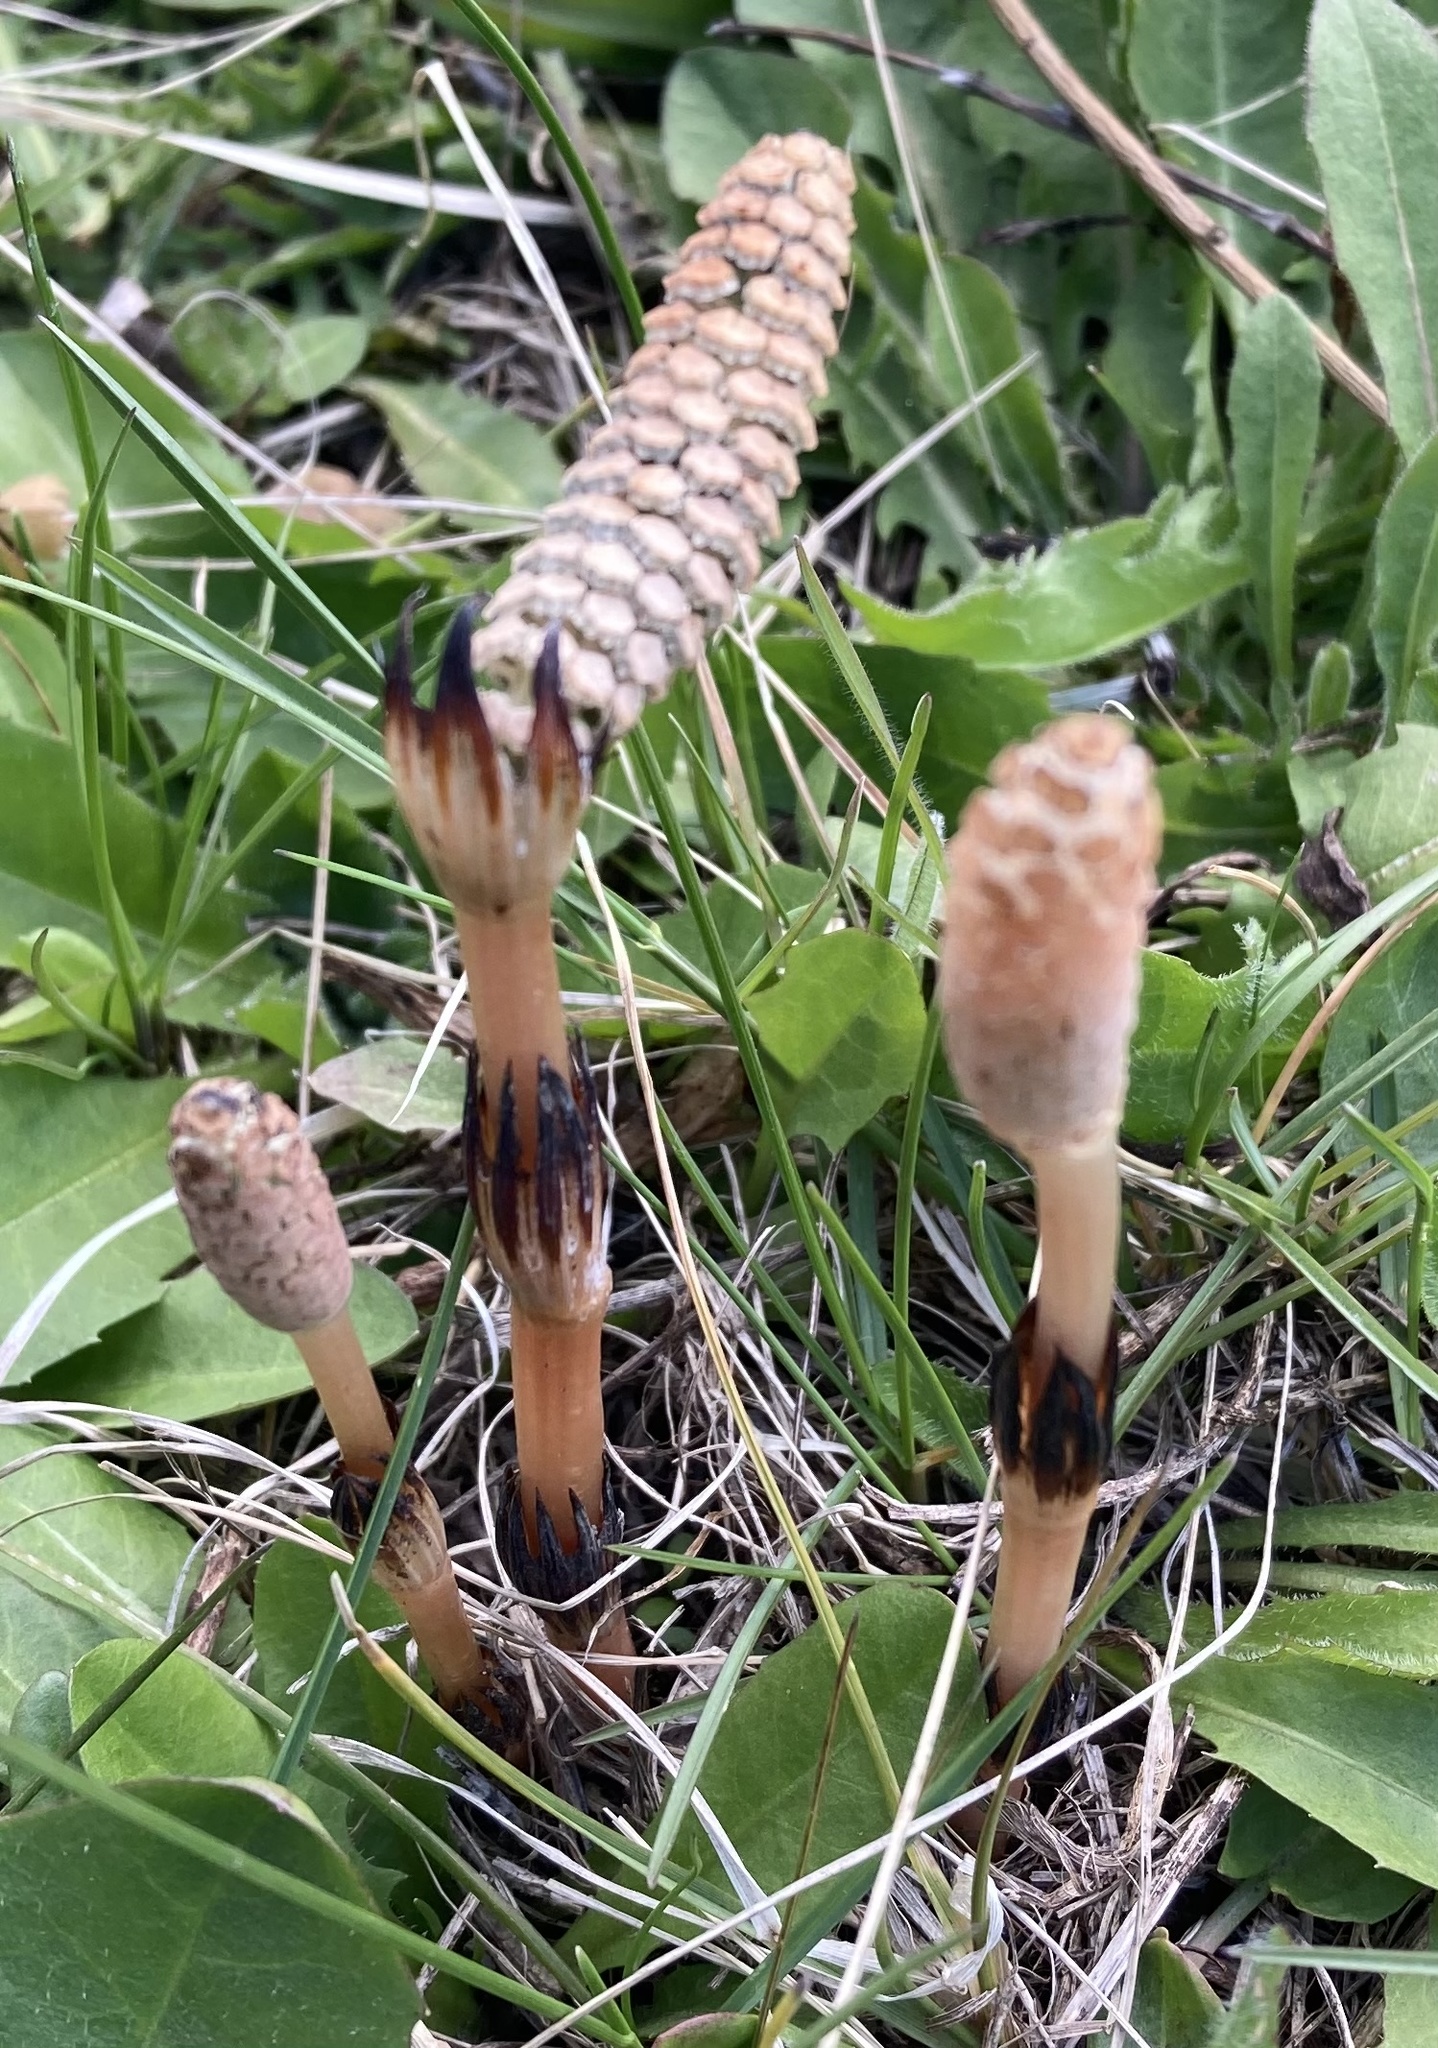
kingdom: Plantae
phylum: Tracheophyta
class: Polypodiopsida
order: Equisetales
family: Equisetaceae
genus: Equisetum
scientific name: Equisetum arvense
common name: Field horsetail
